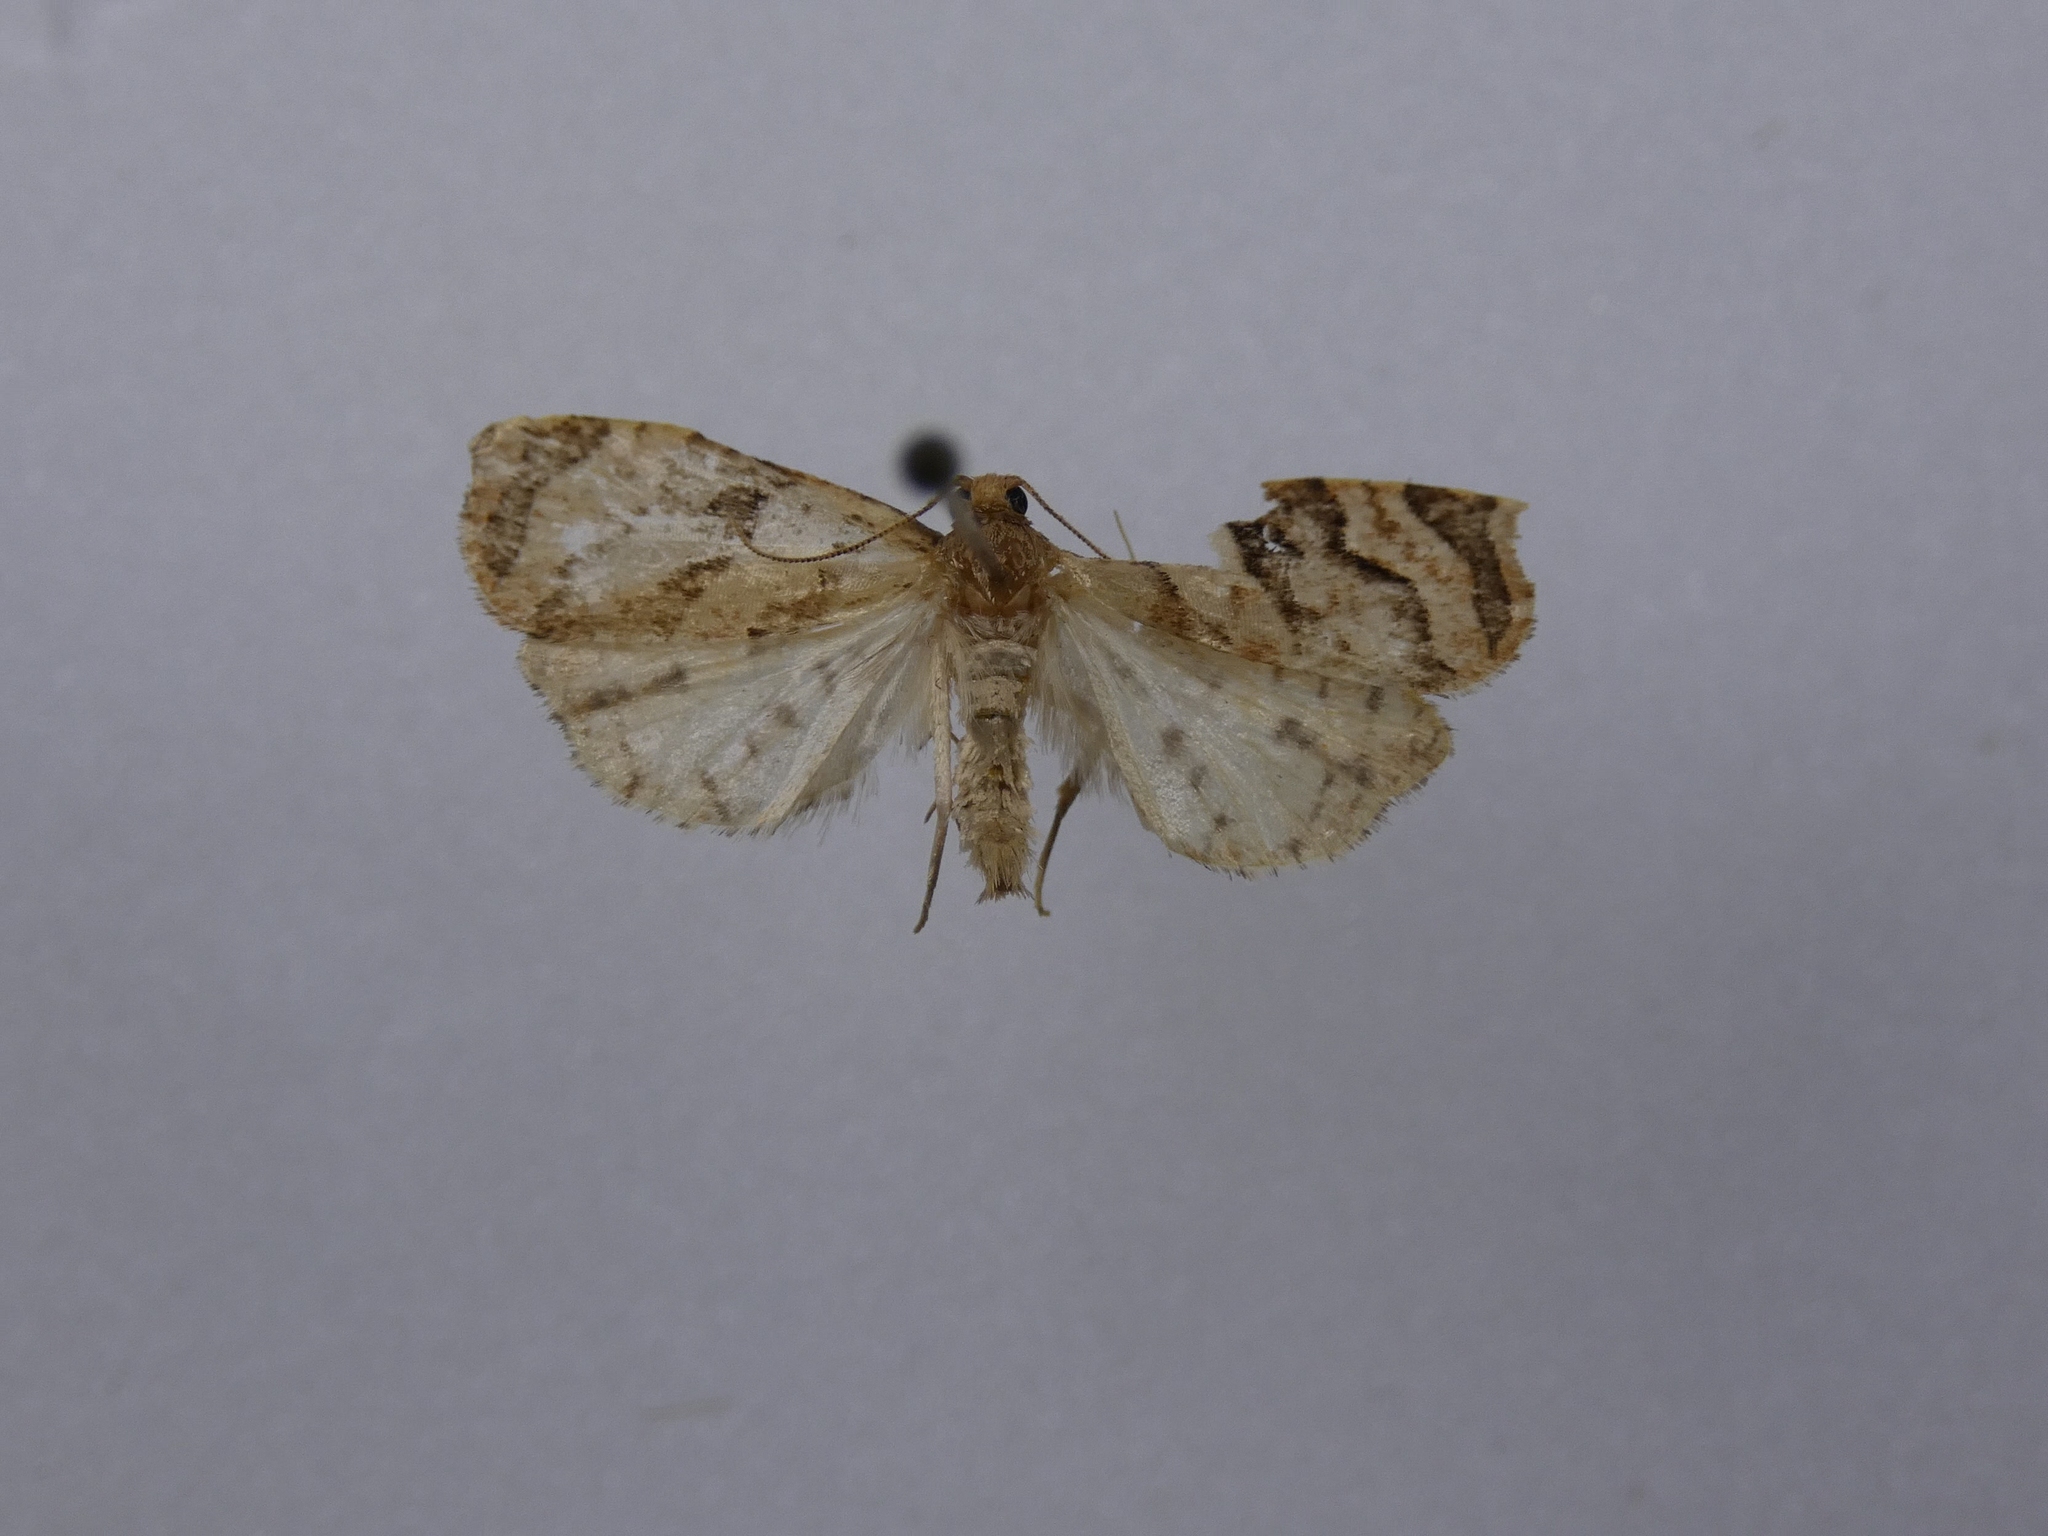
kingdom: Animalia
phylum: Arthropoda
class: Insecta
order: Lepidoptera
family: Tortricidae
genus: Apoctena
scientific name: Apoctena tigris
